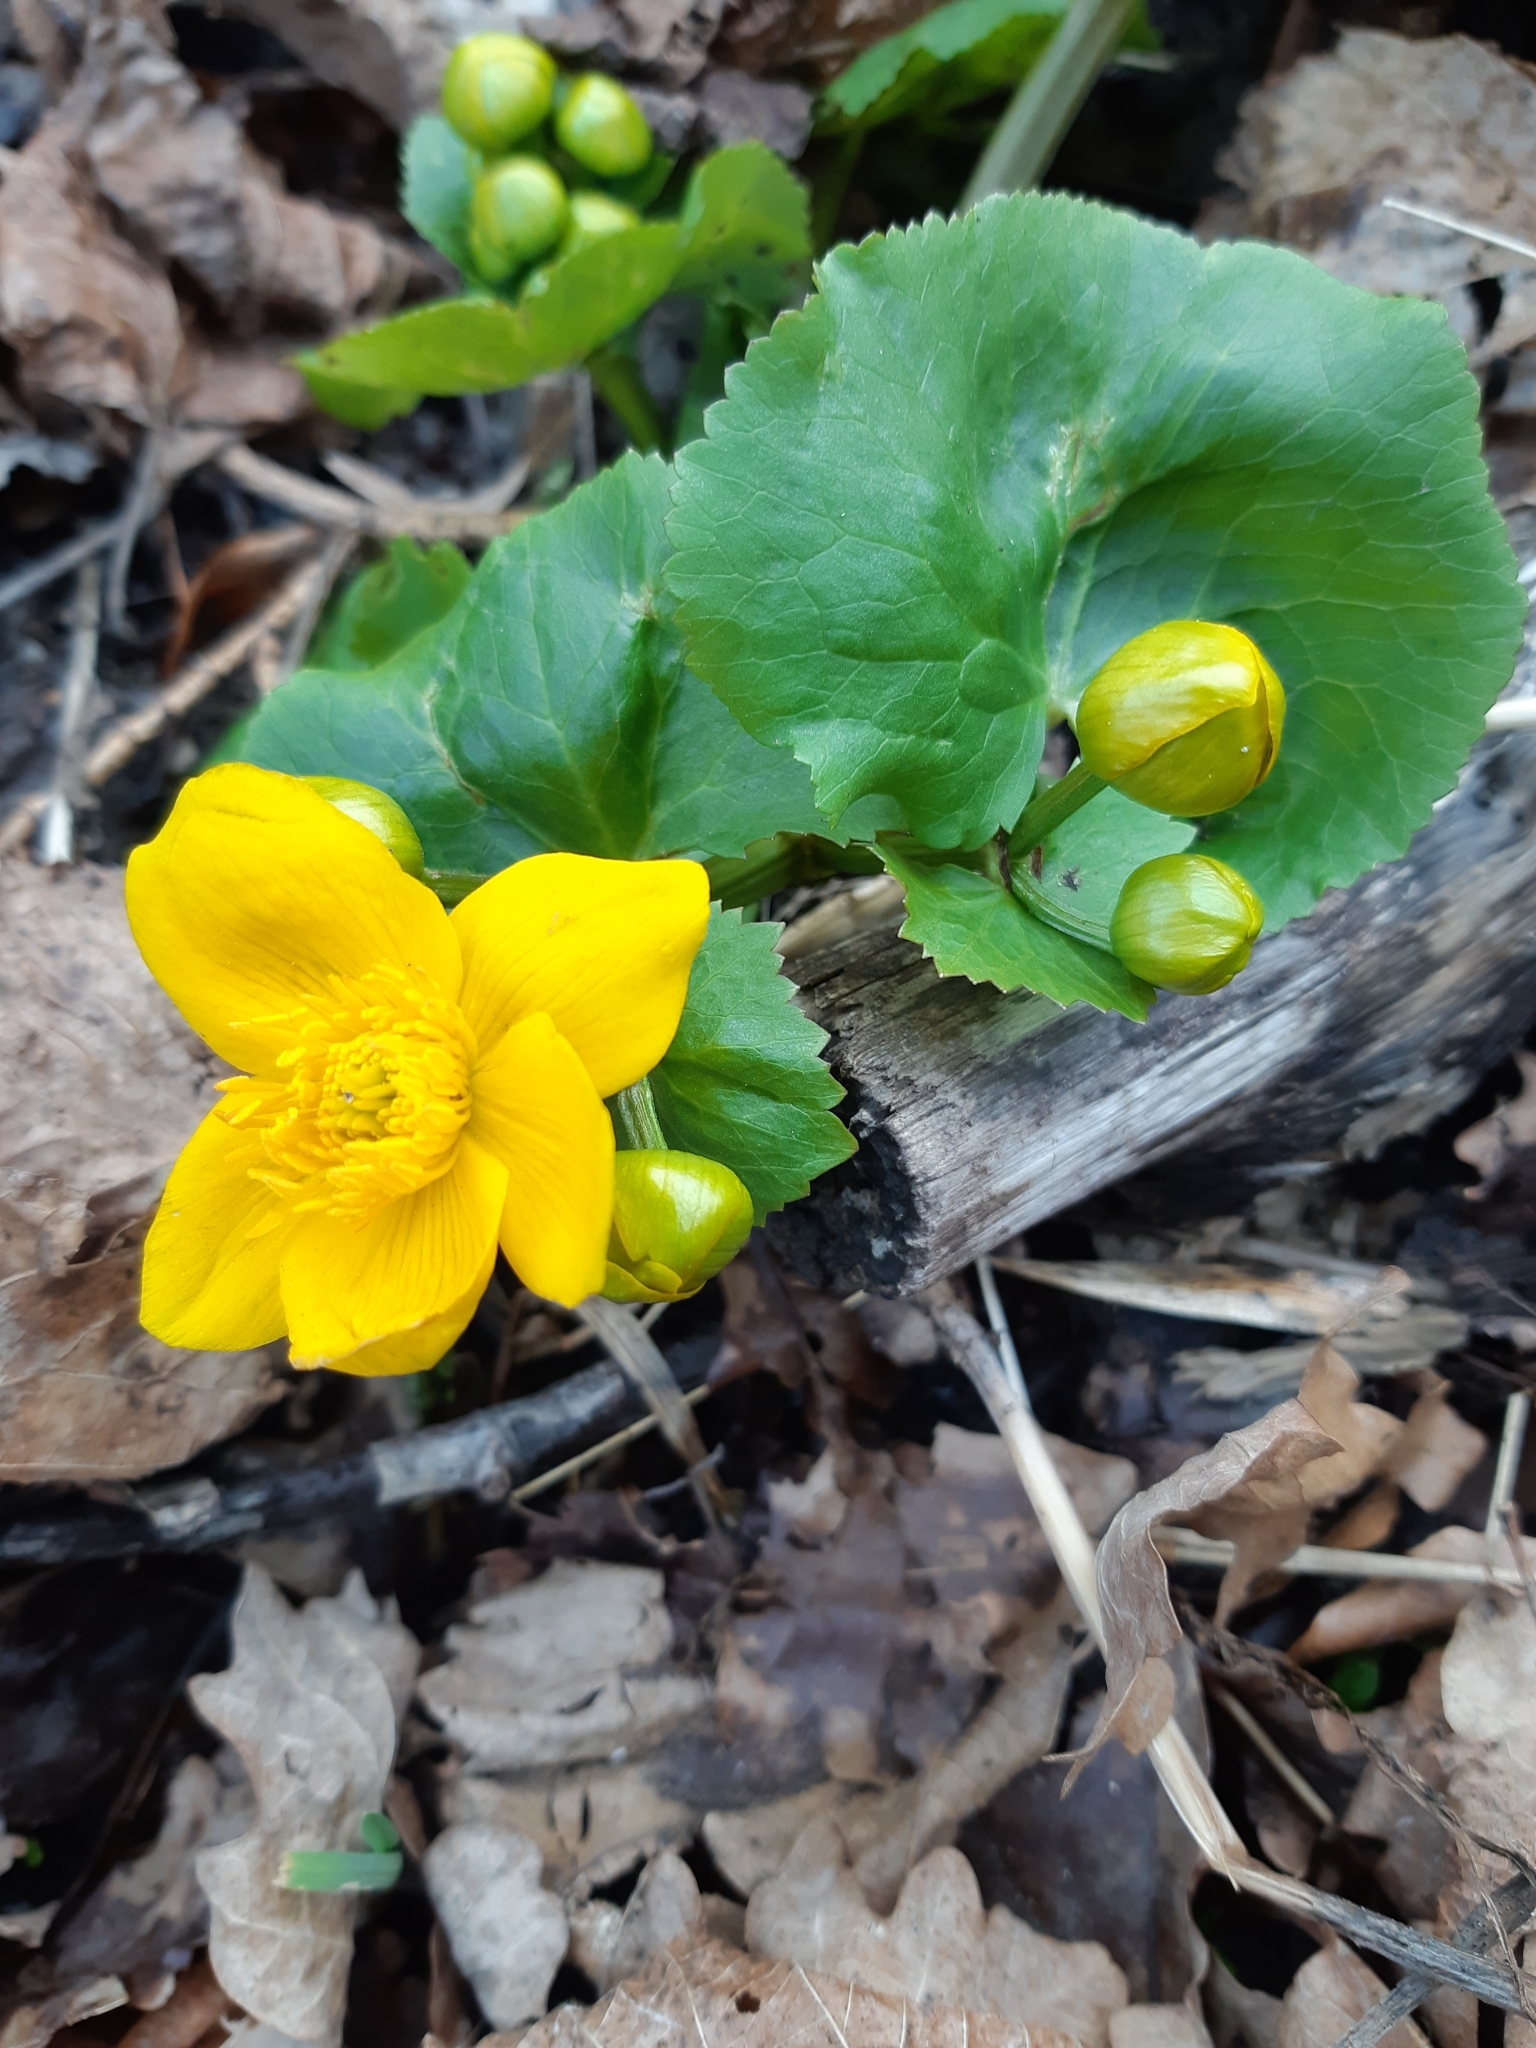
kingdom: Plantae
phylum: Tracheophyta
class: Magnoliopsida
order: Ranunculales
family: Ranunculaceae
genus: Caltha
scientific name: Caltha palustris
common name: Marsh marigold
